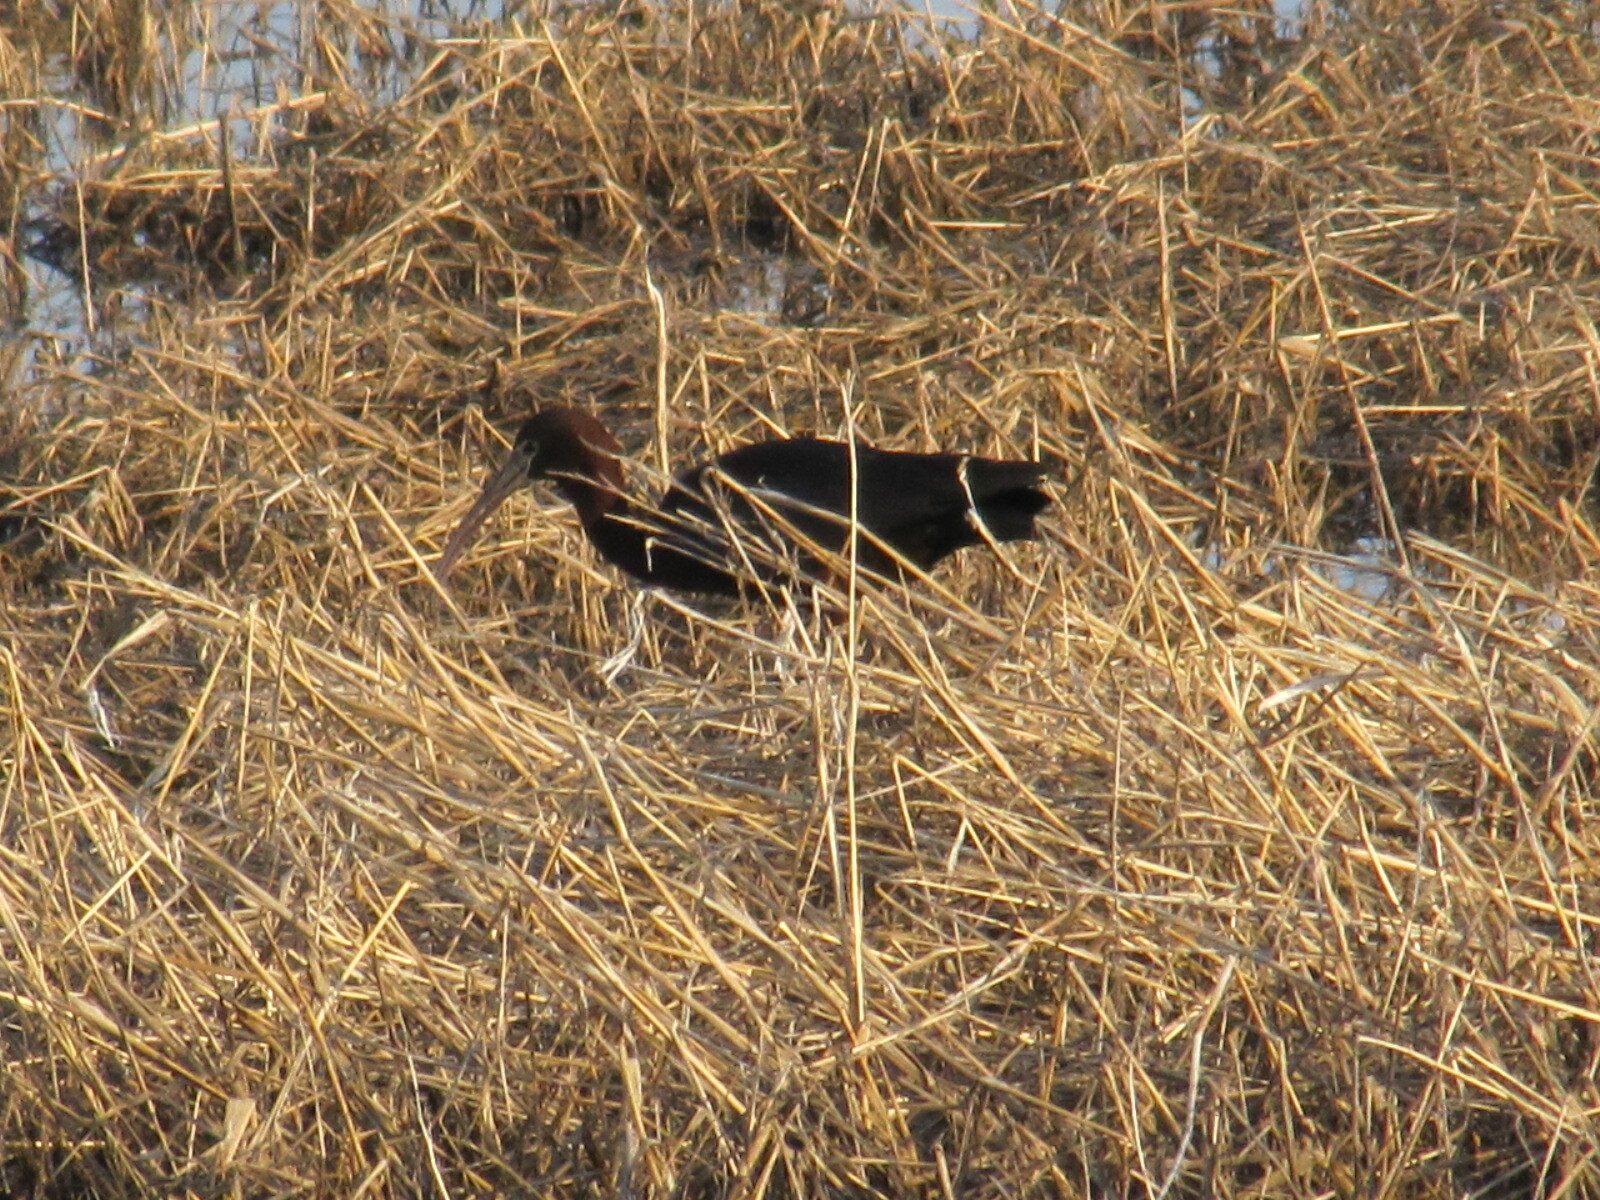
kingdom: Animalia
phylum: Chordata
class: Aves
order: Pelecaniformes
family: Threskiornithidae
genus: Plegadis
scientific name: Plegadis falcinellus
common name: Glossy ibis
